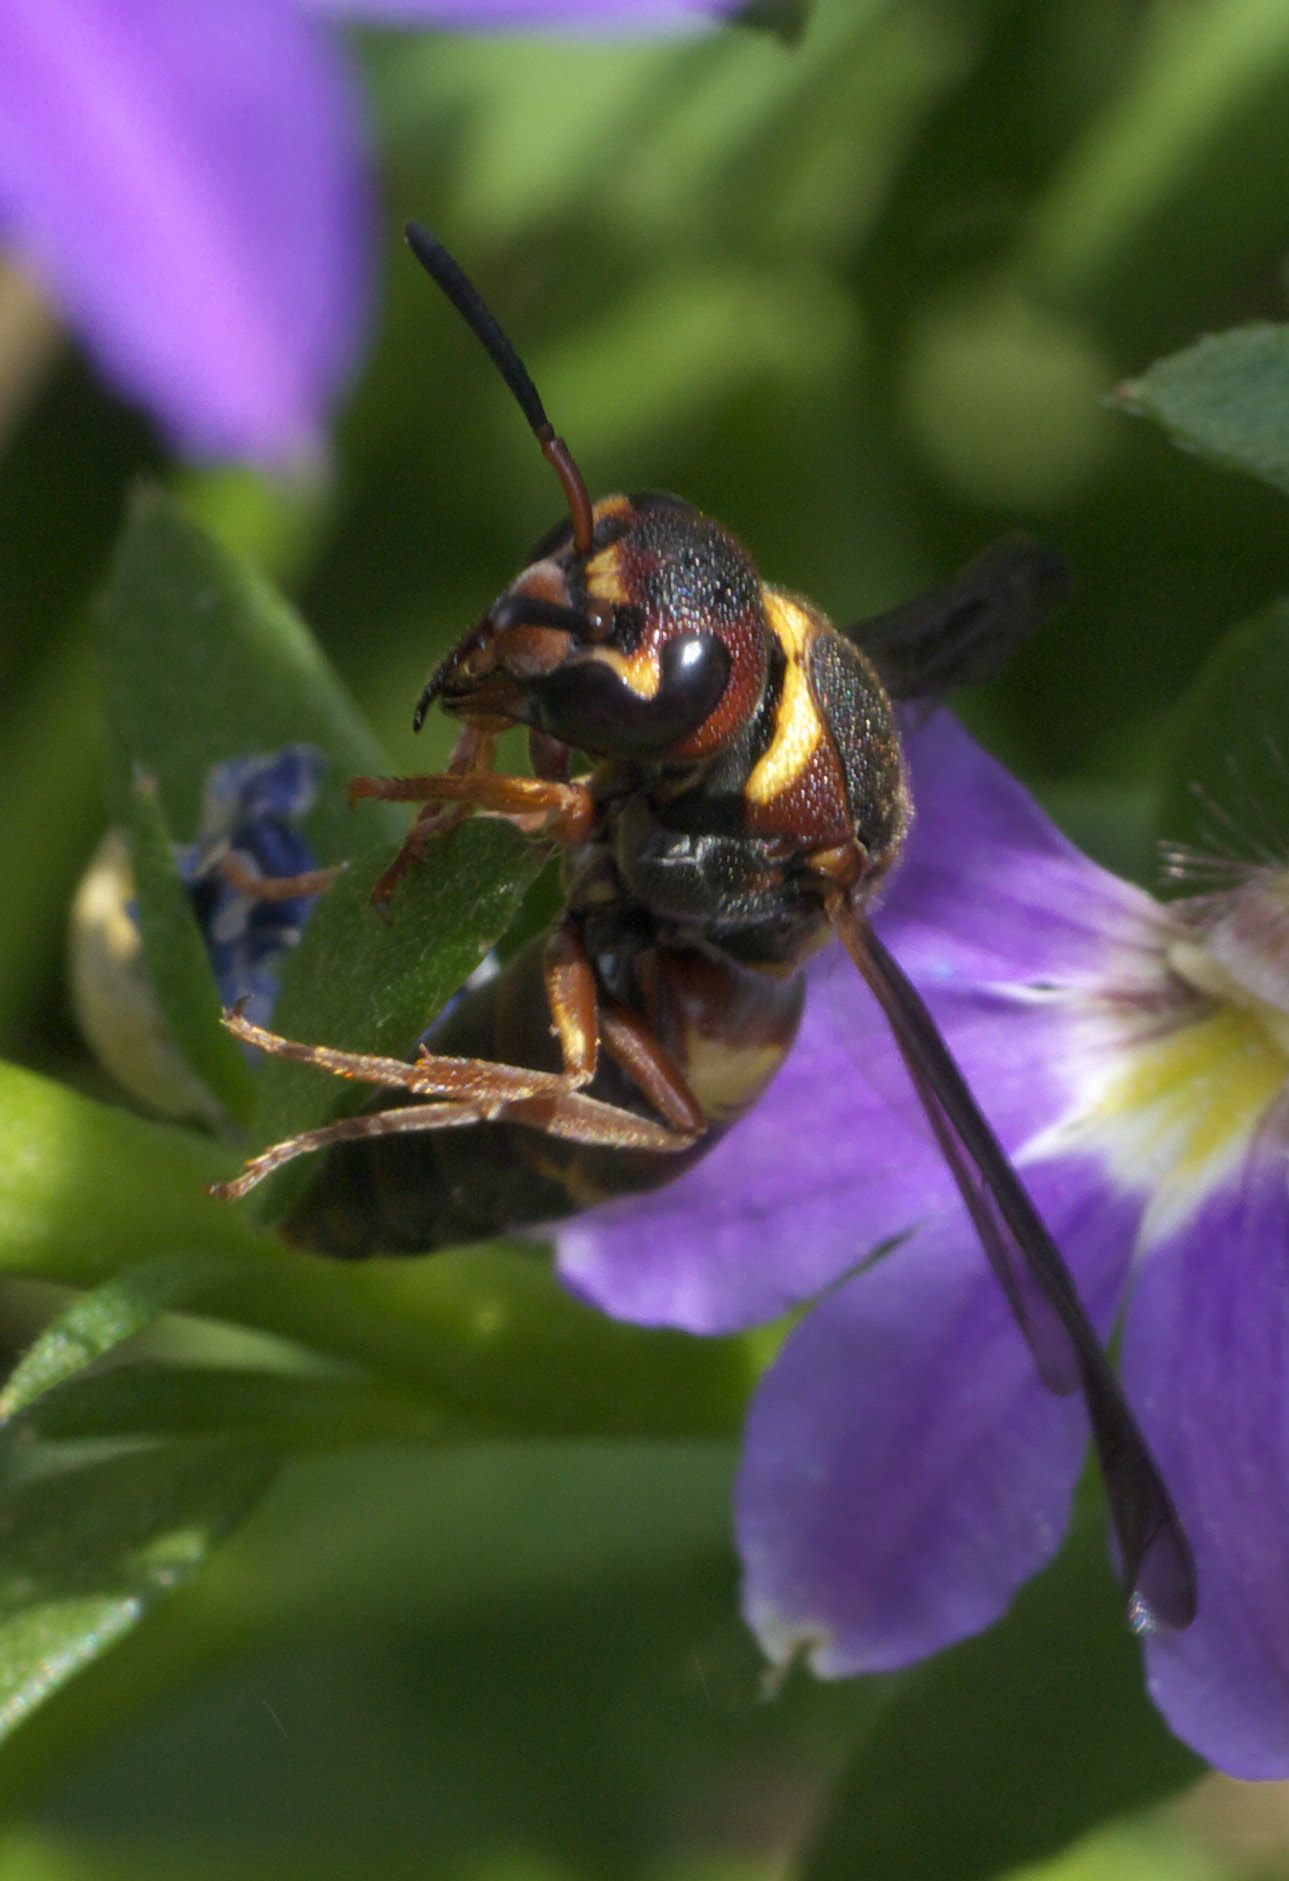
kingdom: Animalia
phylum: Arthropoda
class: Insecta
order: Hymenoptera
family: Eumenidae
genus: Euodynerus
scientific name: Euodynerus annulatus
